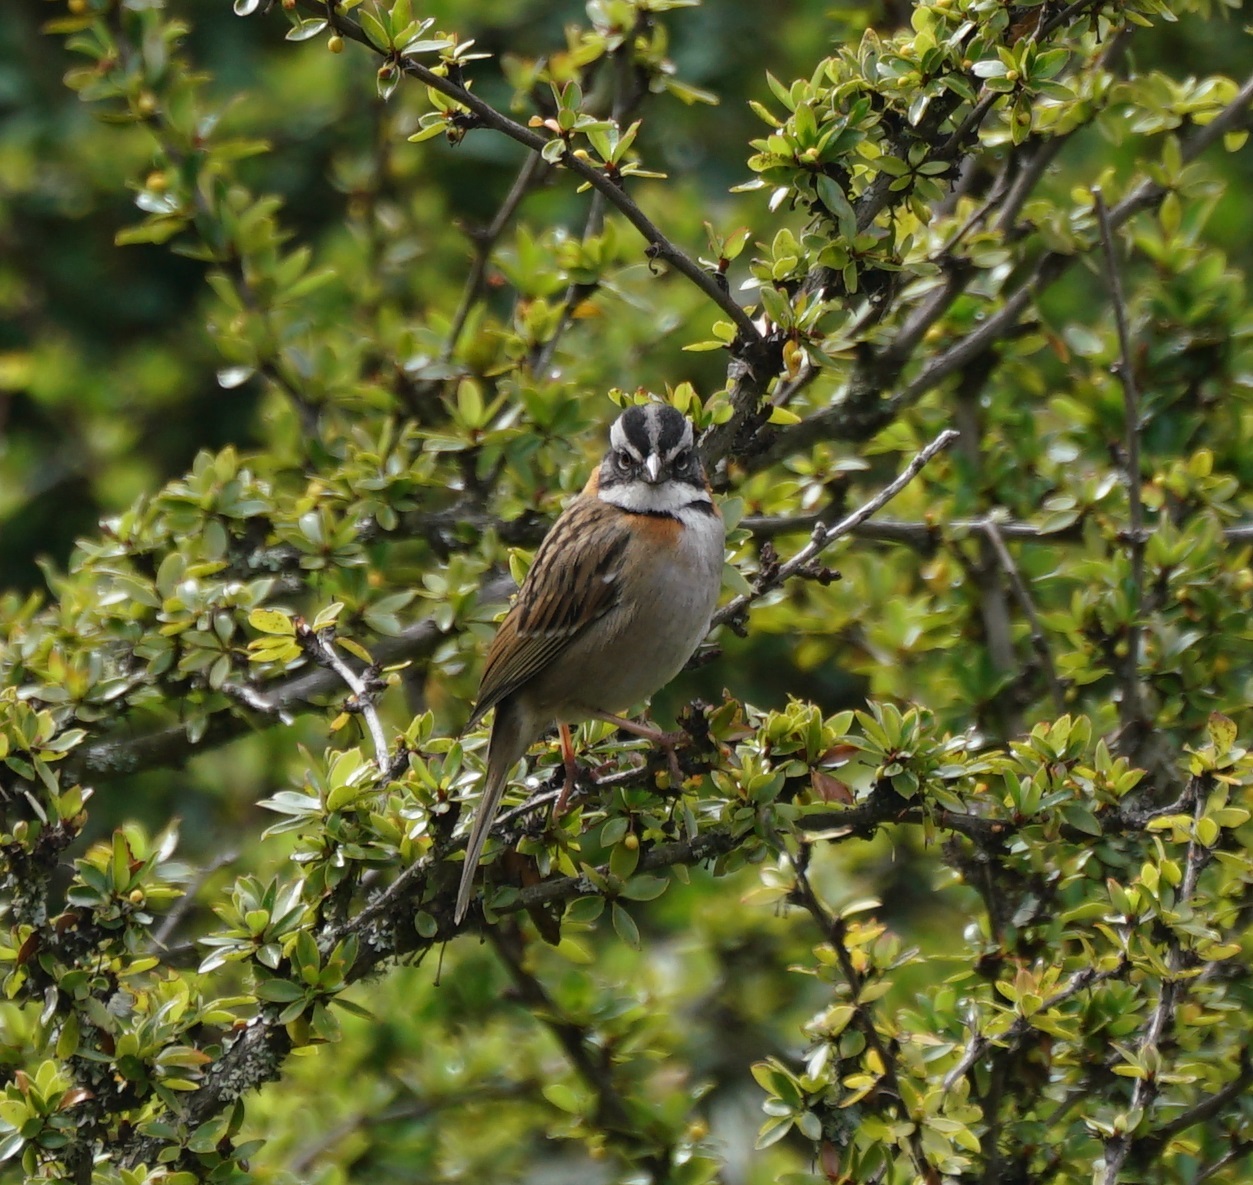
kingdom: Animalia
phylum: Chordata
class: Aves
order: Passeriformes
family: Passerellidae
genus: Zonotrichia
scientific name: Zonotrichia capensis
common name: Rufous-collared sparrow
